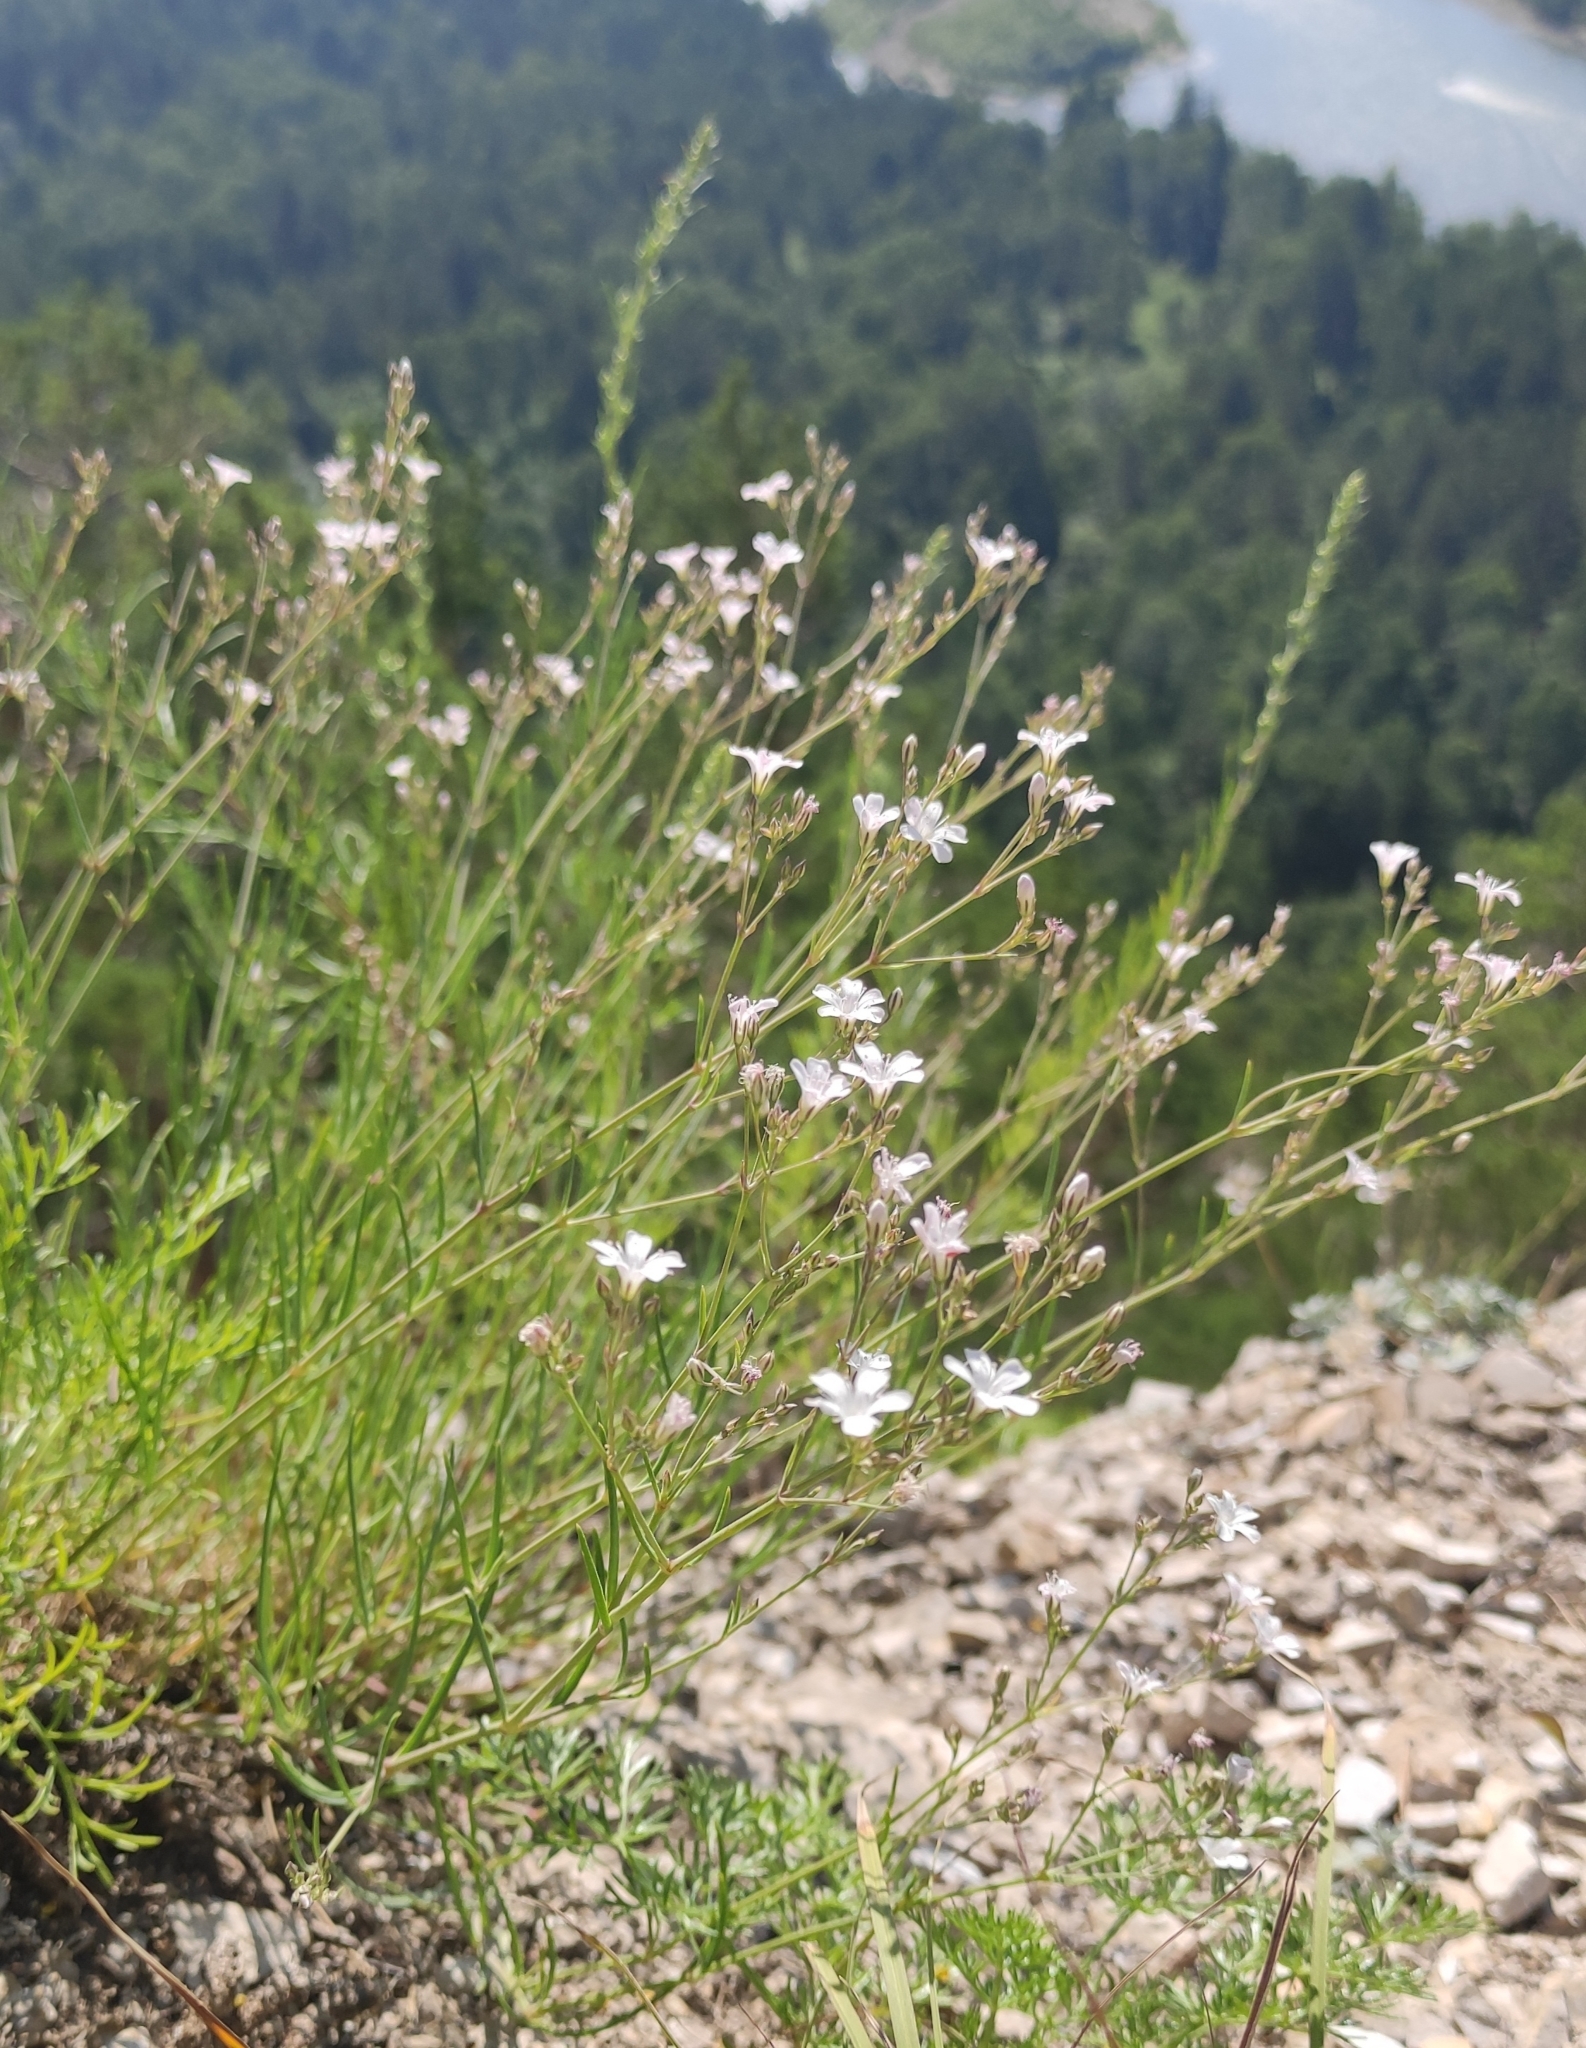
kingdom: Plantae
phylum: Tracheophyta
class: Magnoliopsida
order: Caryophyllales
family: Caryophyllaceae
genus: Gypsophila
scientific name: Gypsophila patrinii
